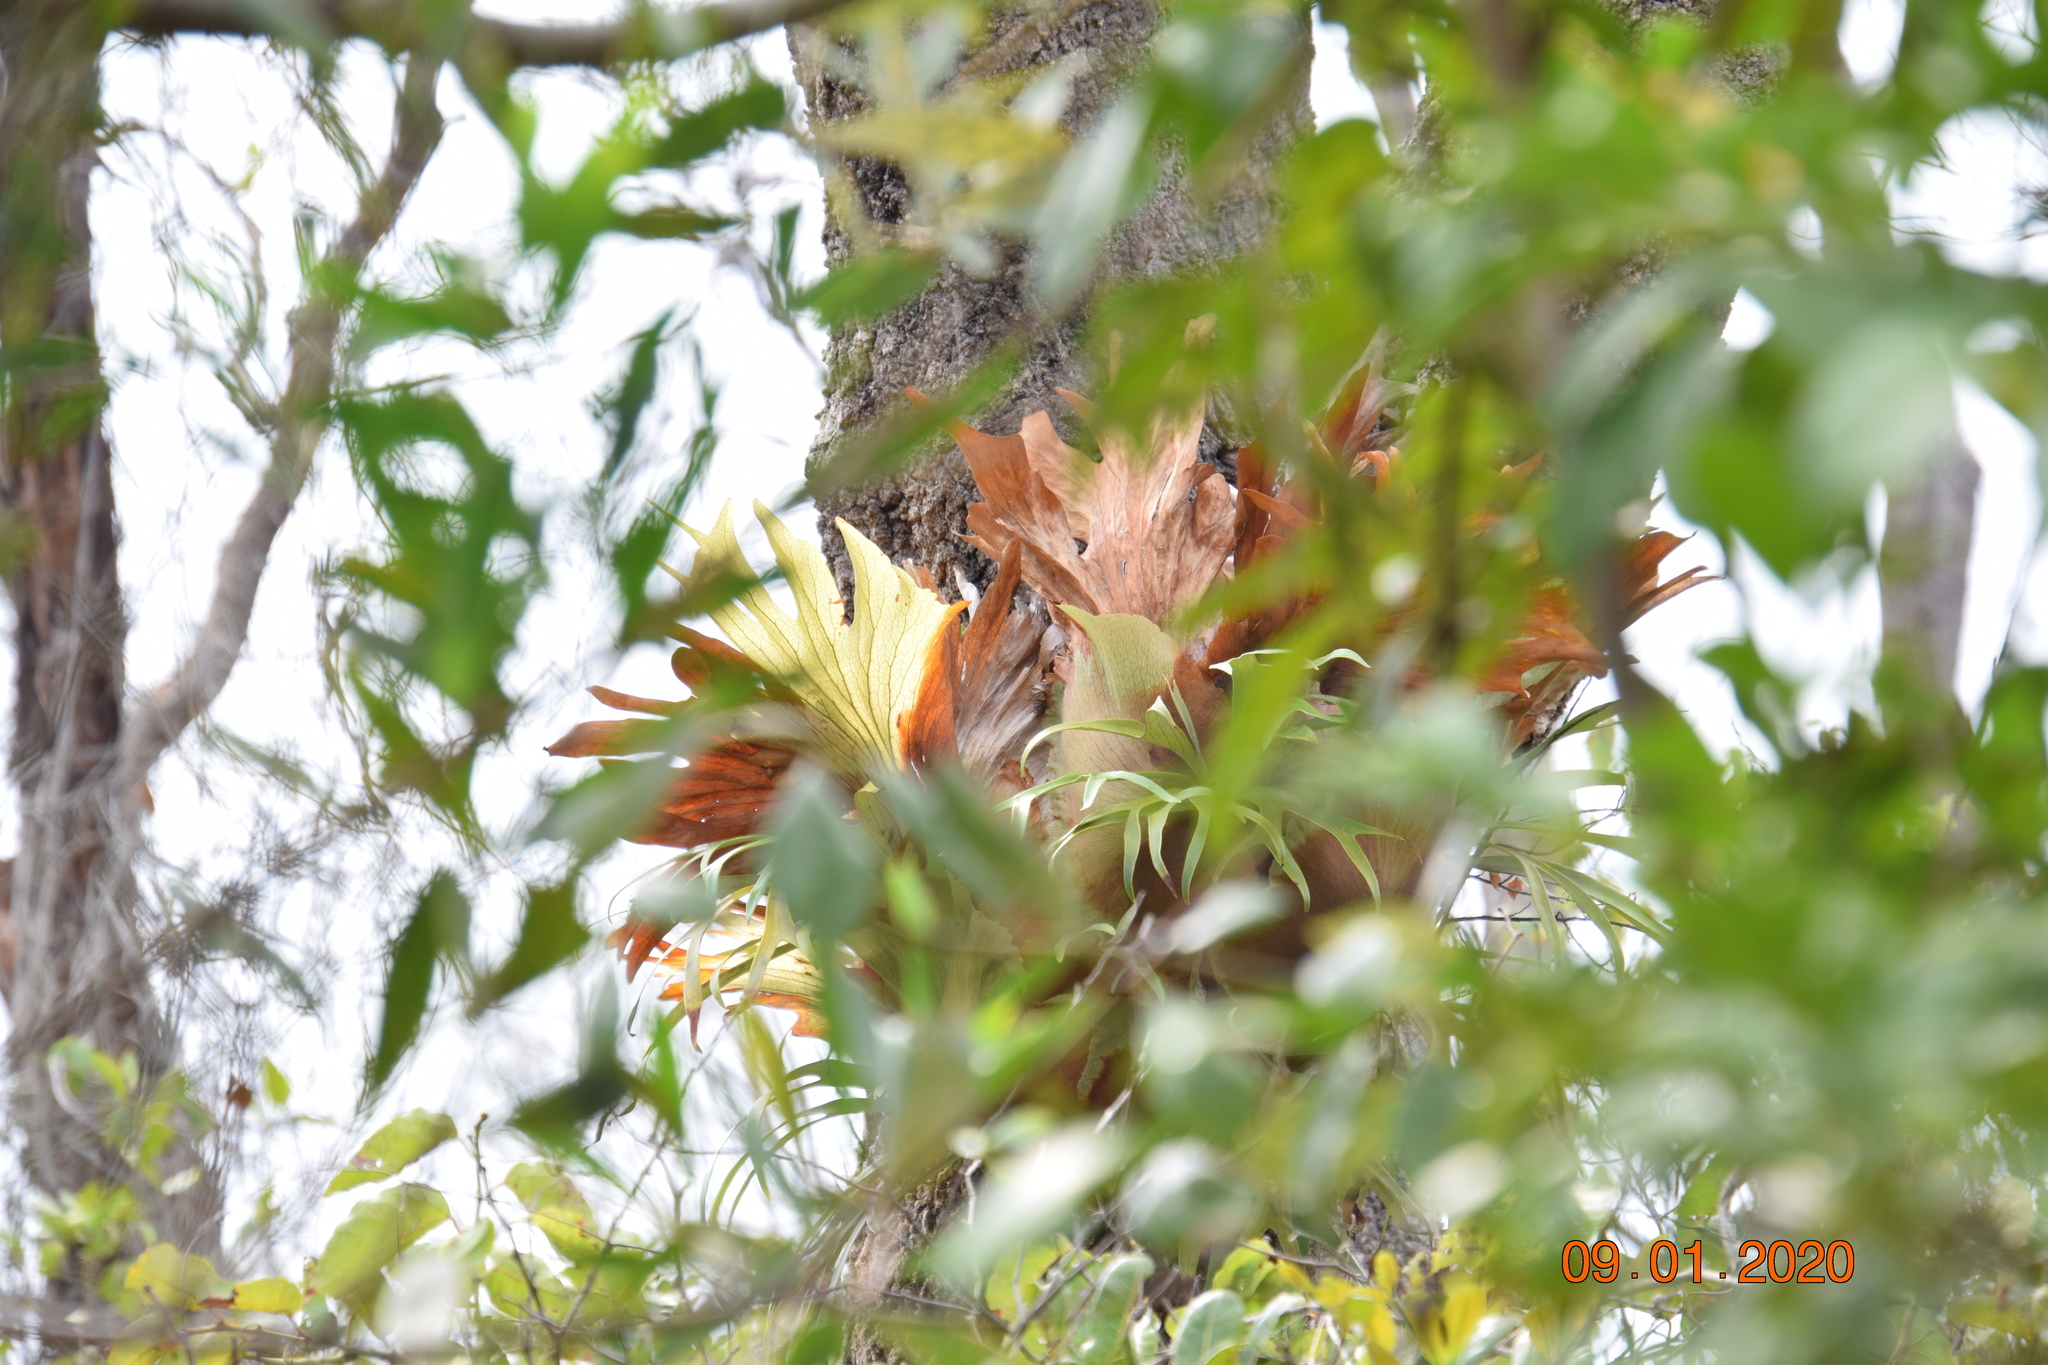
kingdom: Plantae
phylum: Tracheophyta
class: Polypodiopsida
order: Polypodiales
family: Polypodiaceae
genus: Platycerium
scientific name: Platycerium bifurcatum
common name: Elkhorn fern
